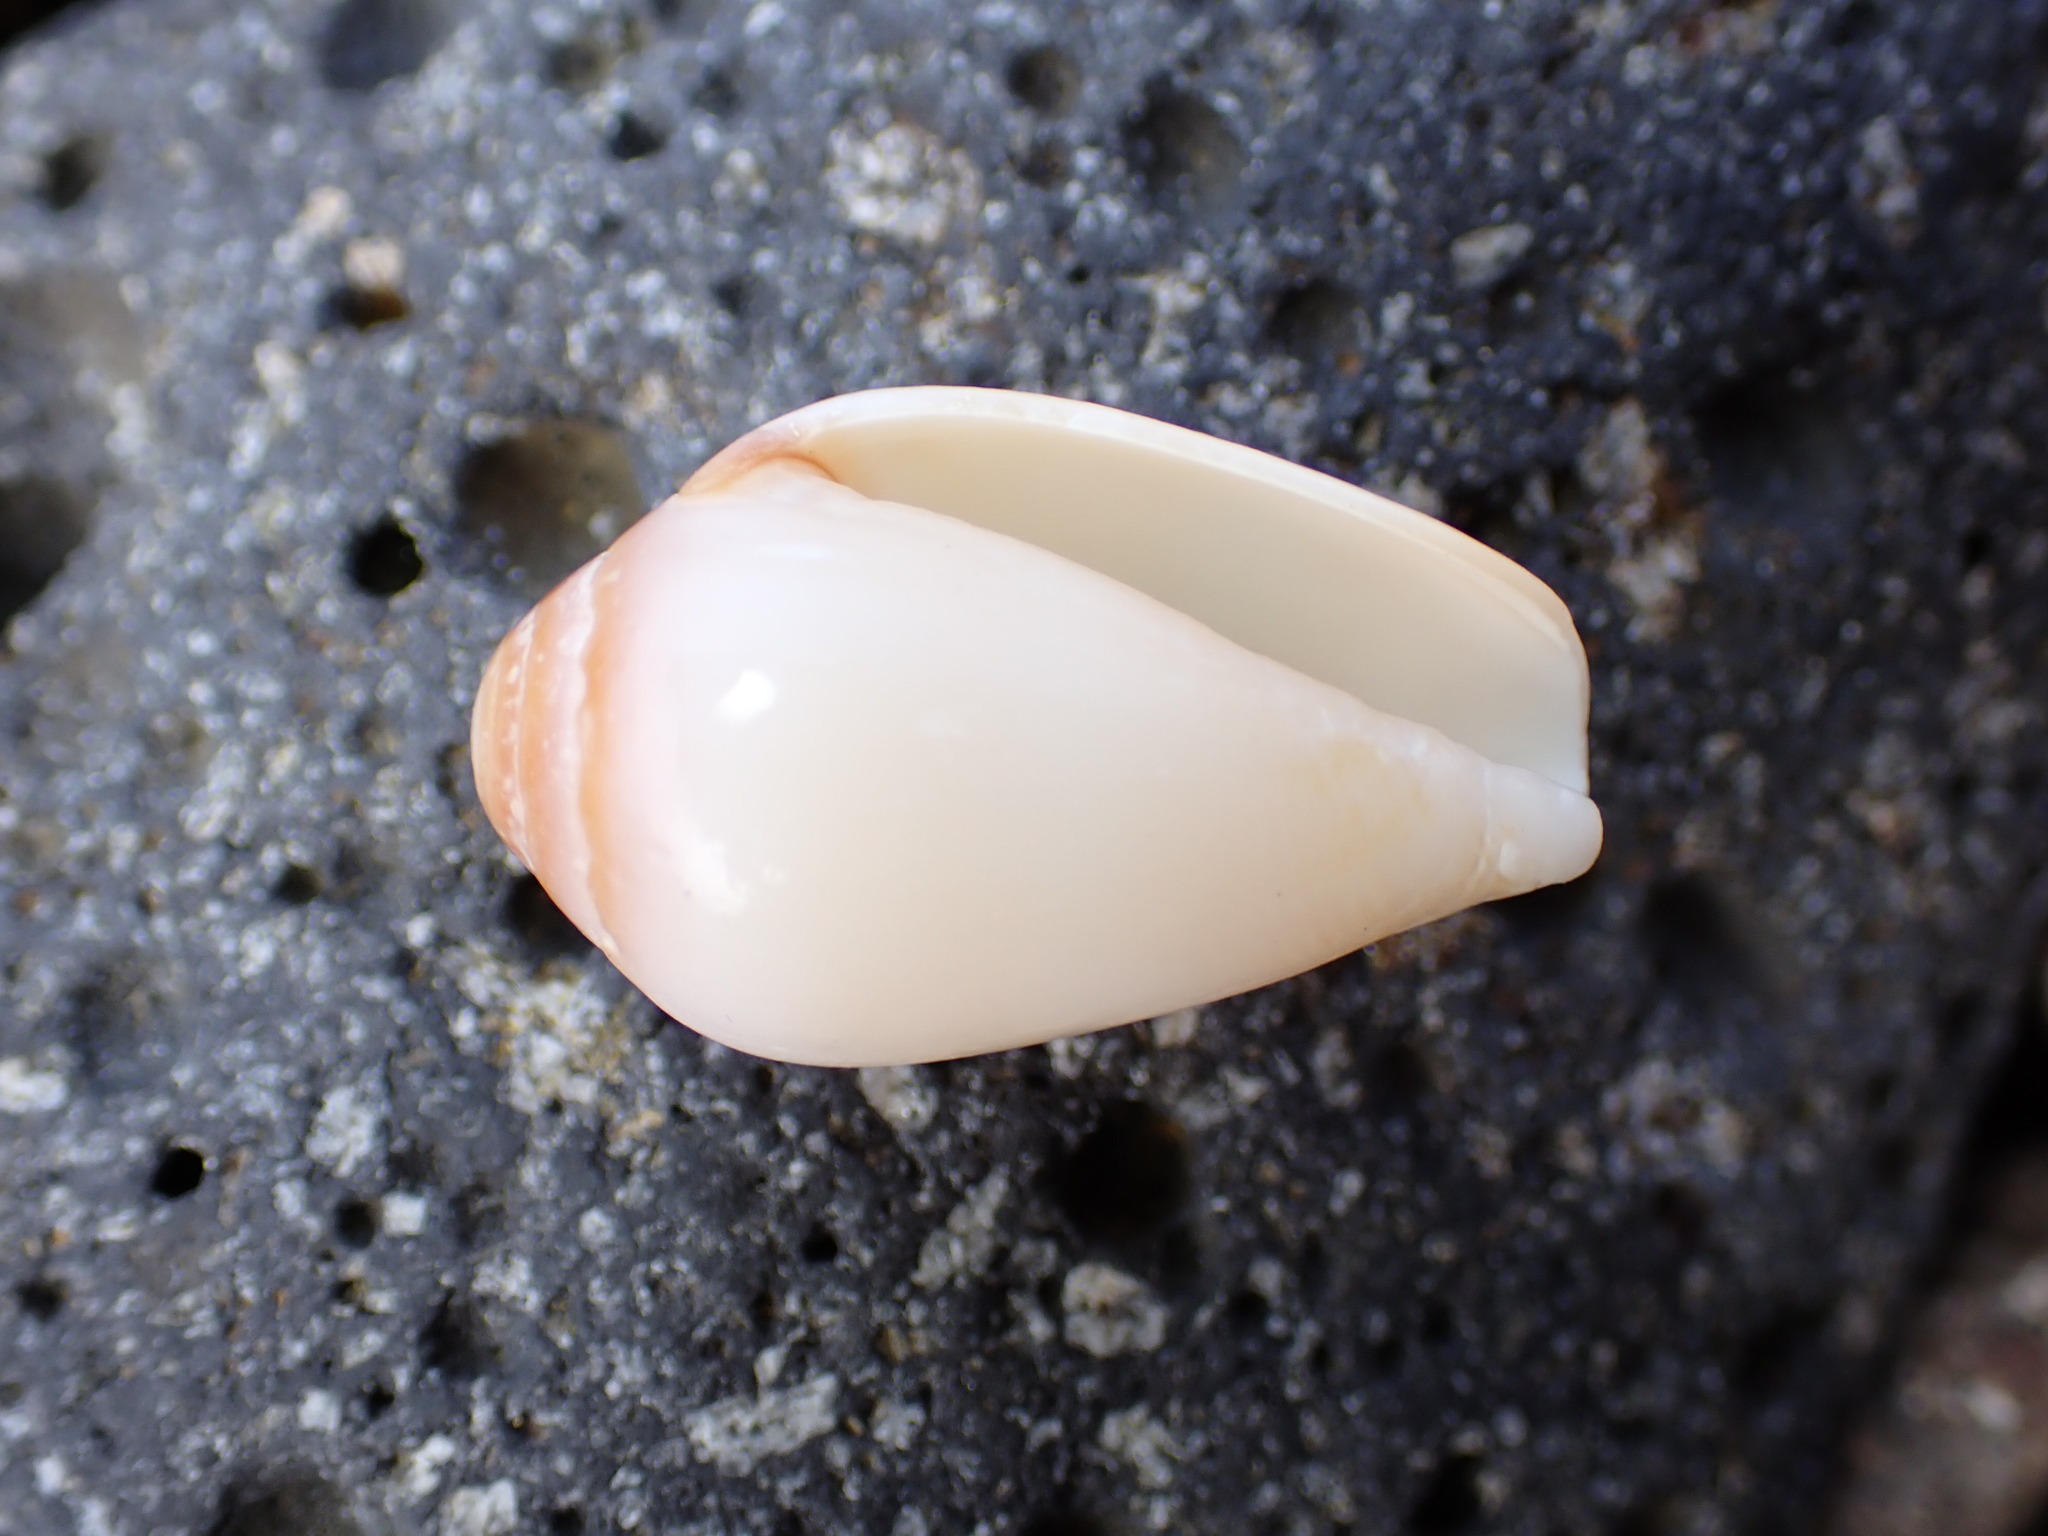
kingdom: Animalia
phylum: Mollusca
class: Gastropoda
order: Neogastropoda
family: Conidae
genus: Californiconus
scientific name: Californiconus californicus
